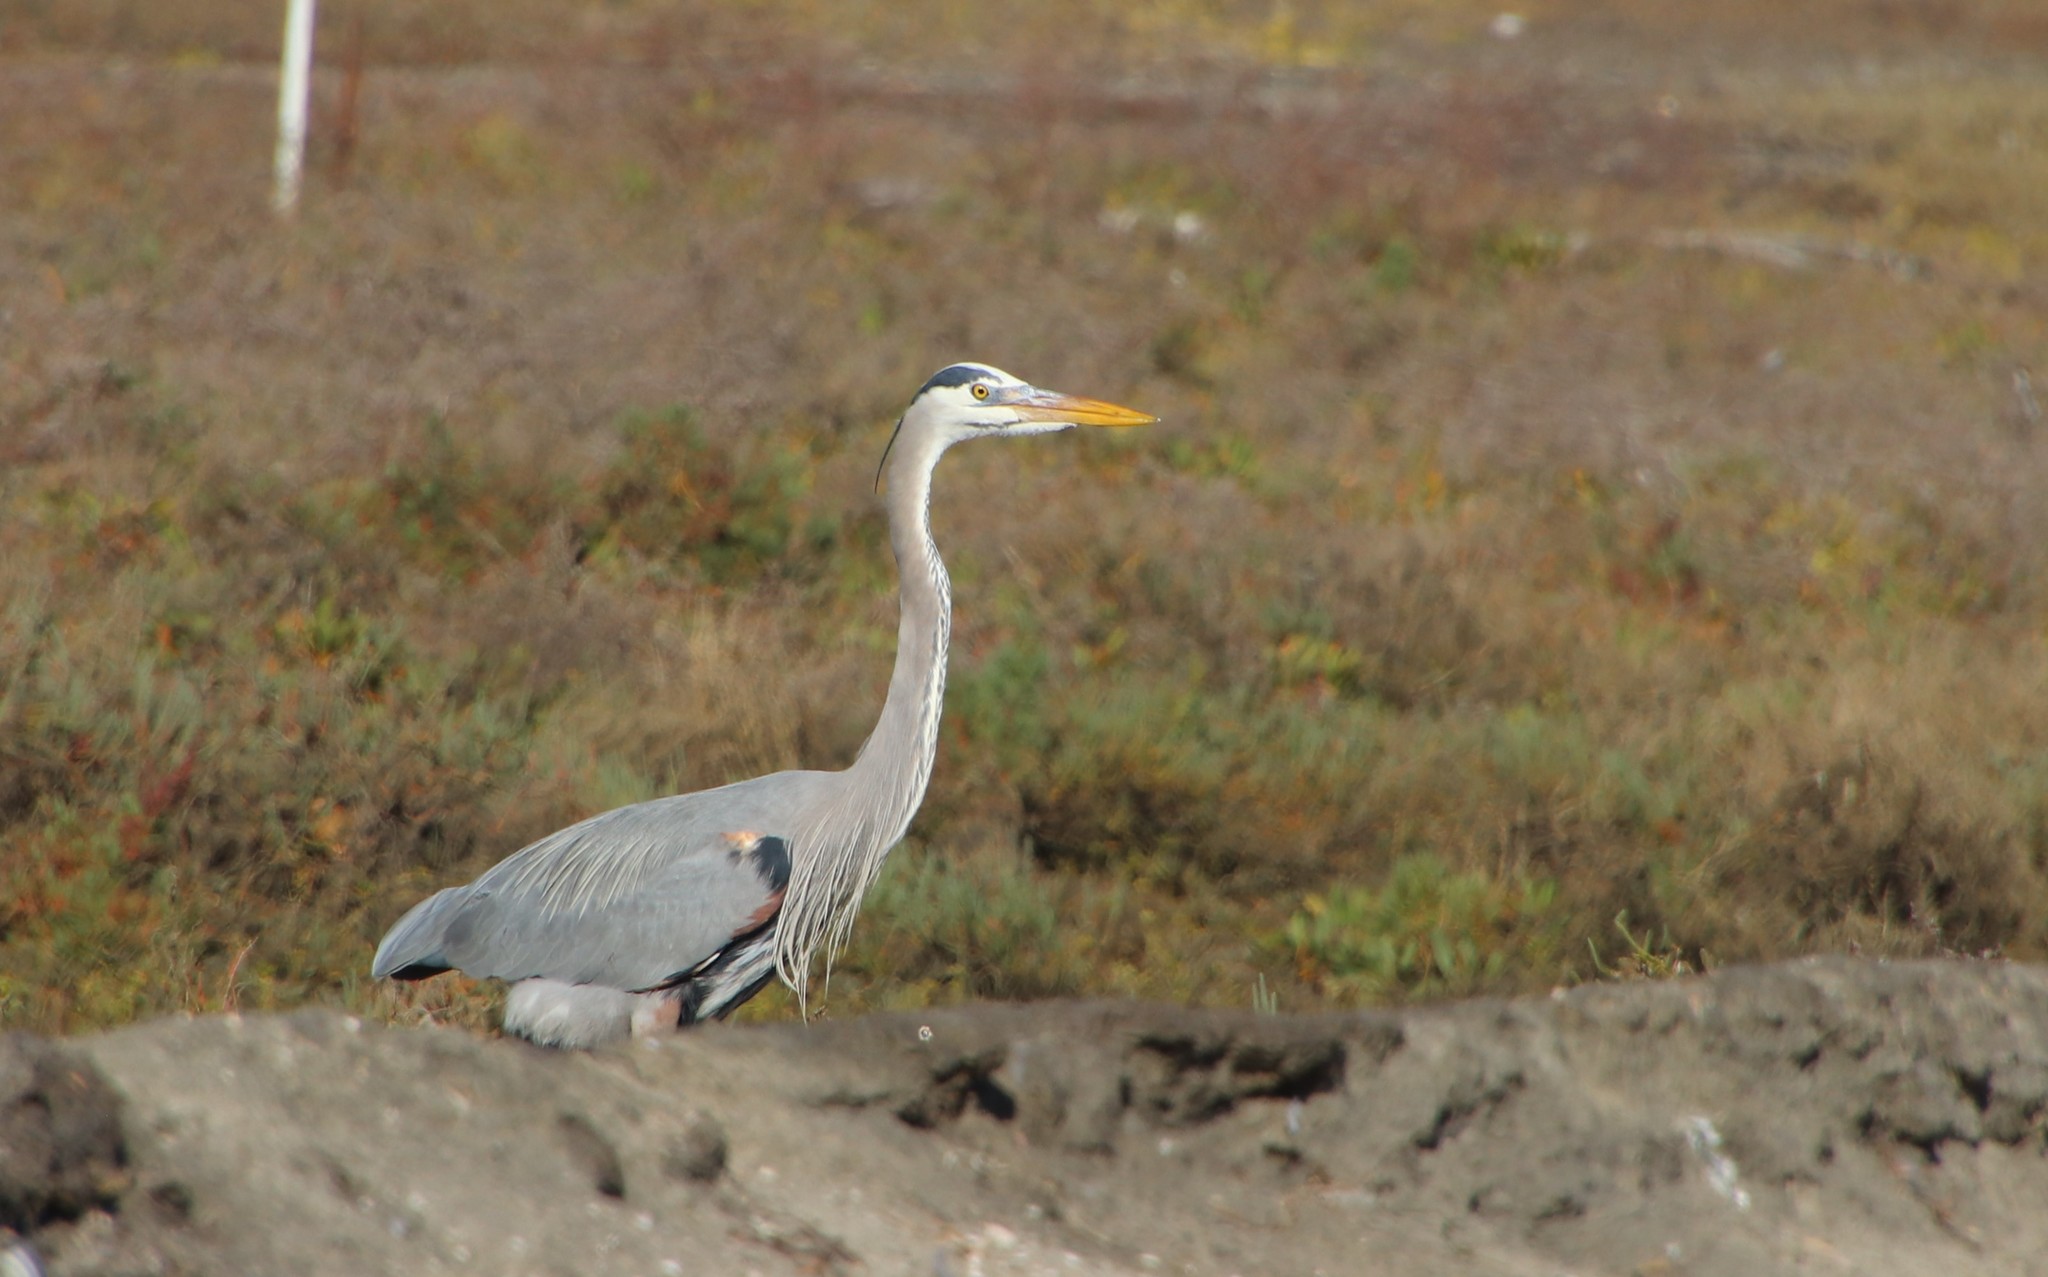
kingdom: Animalia
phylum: Chordata
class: Aves
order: Pelecaniformes
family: Ardeidae
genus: Ardea
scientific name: Ardea herodias
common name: Great blue heron
